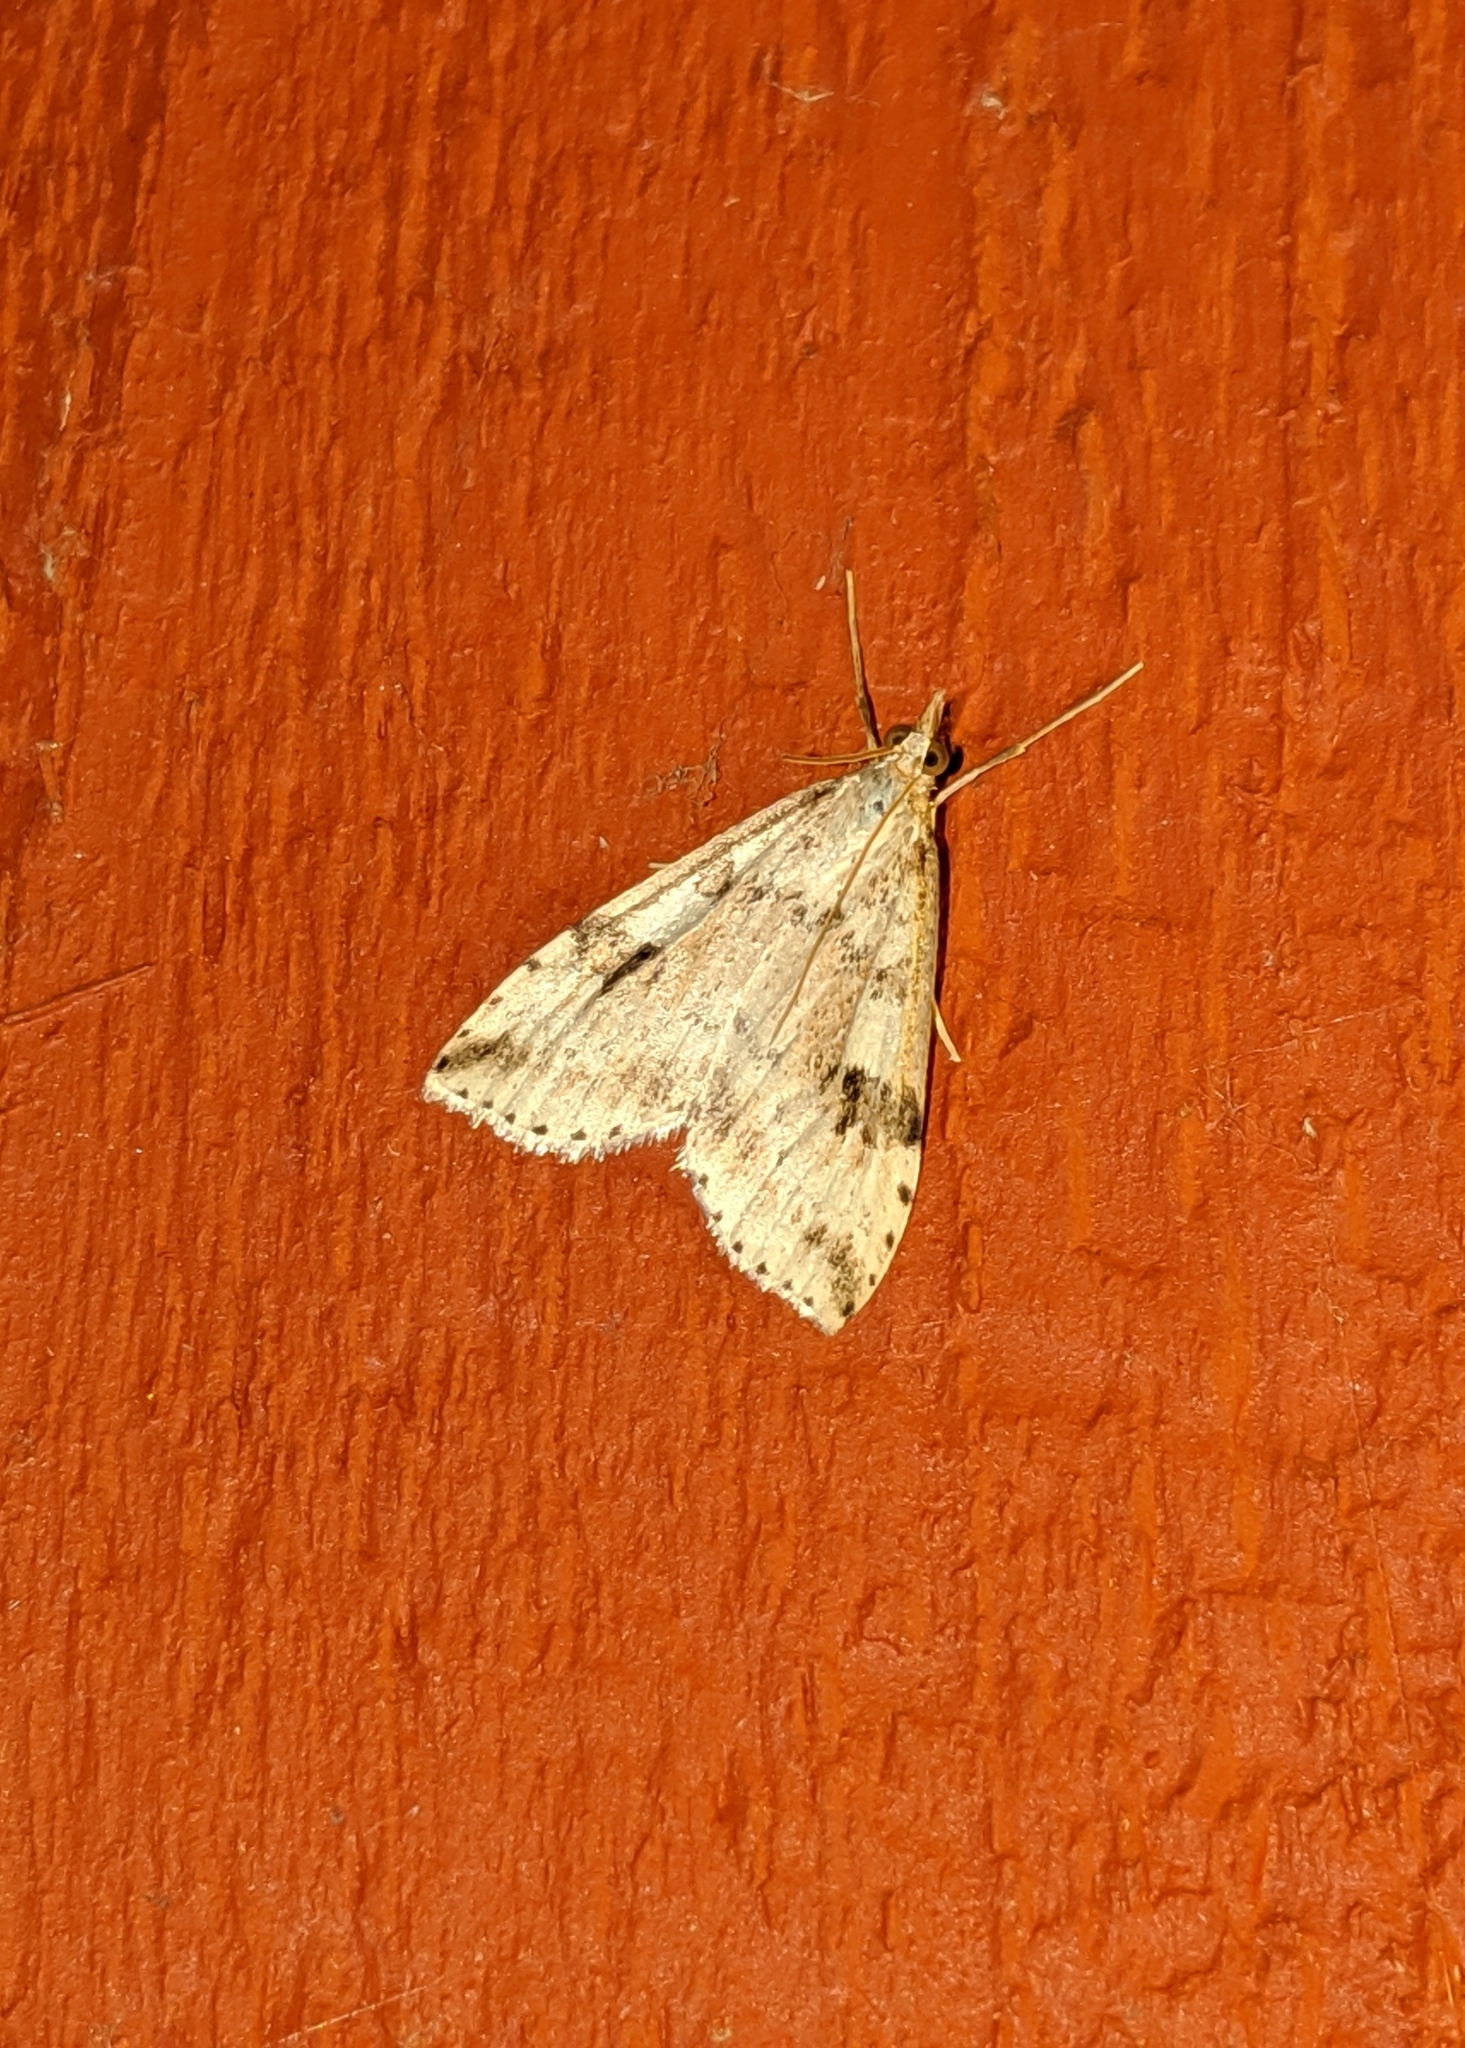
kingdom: Animalia
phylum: Arthropoda
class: Insecta
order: Lepidoptera
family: Crambidae
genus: Udea
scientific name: Udea washingtonalis
